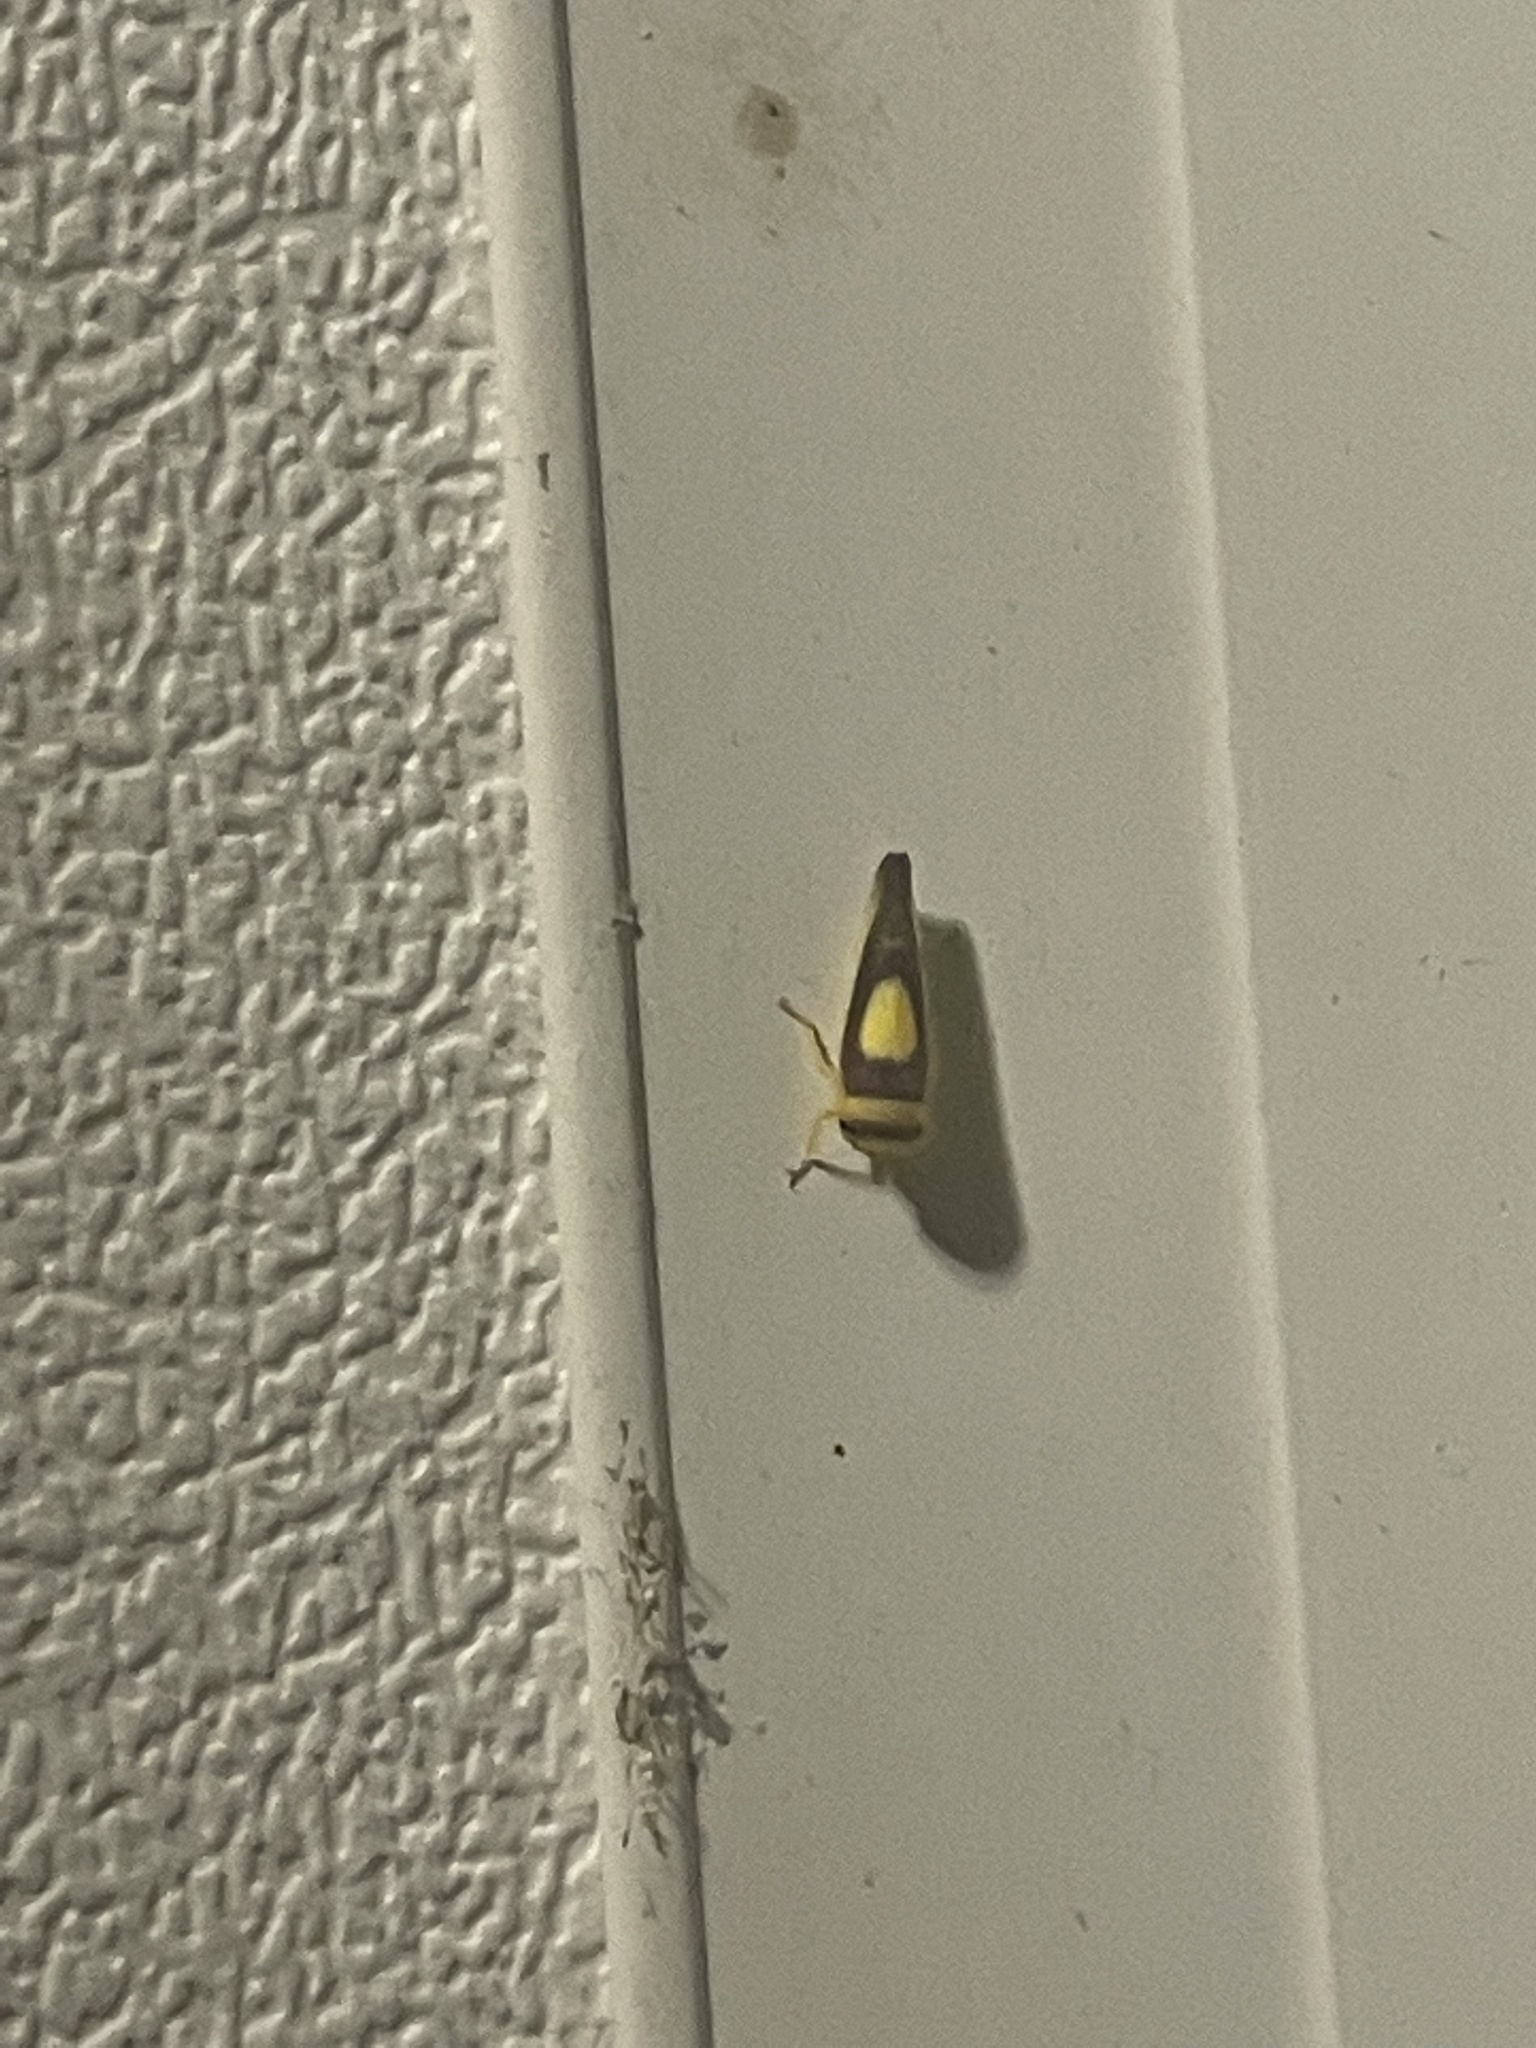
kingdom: Animalia
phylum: Arthropoda
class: Insecta
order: Hemiptera
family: Cicadellidae
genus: Colladonus
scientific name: Colladonus clitellarius
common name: The saddleback leafhopper
